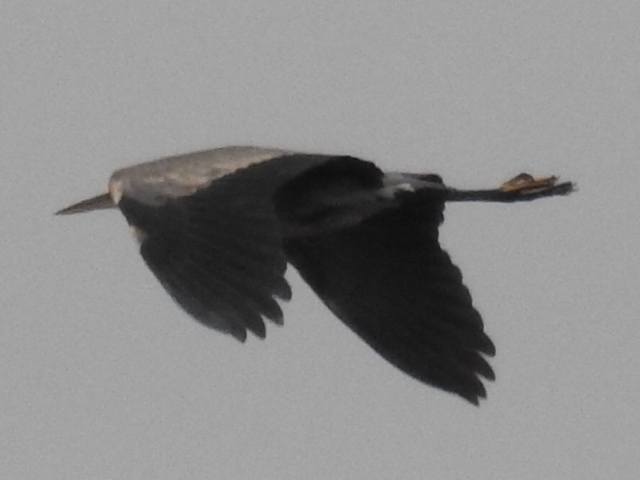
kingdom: Animalia
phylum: Chordata
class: Aves
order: Pelecaniformes
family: Ardeidae
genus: Ardea
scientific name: Ardea herodias
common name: Great blue heron
